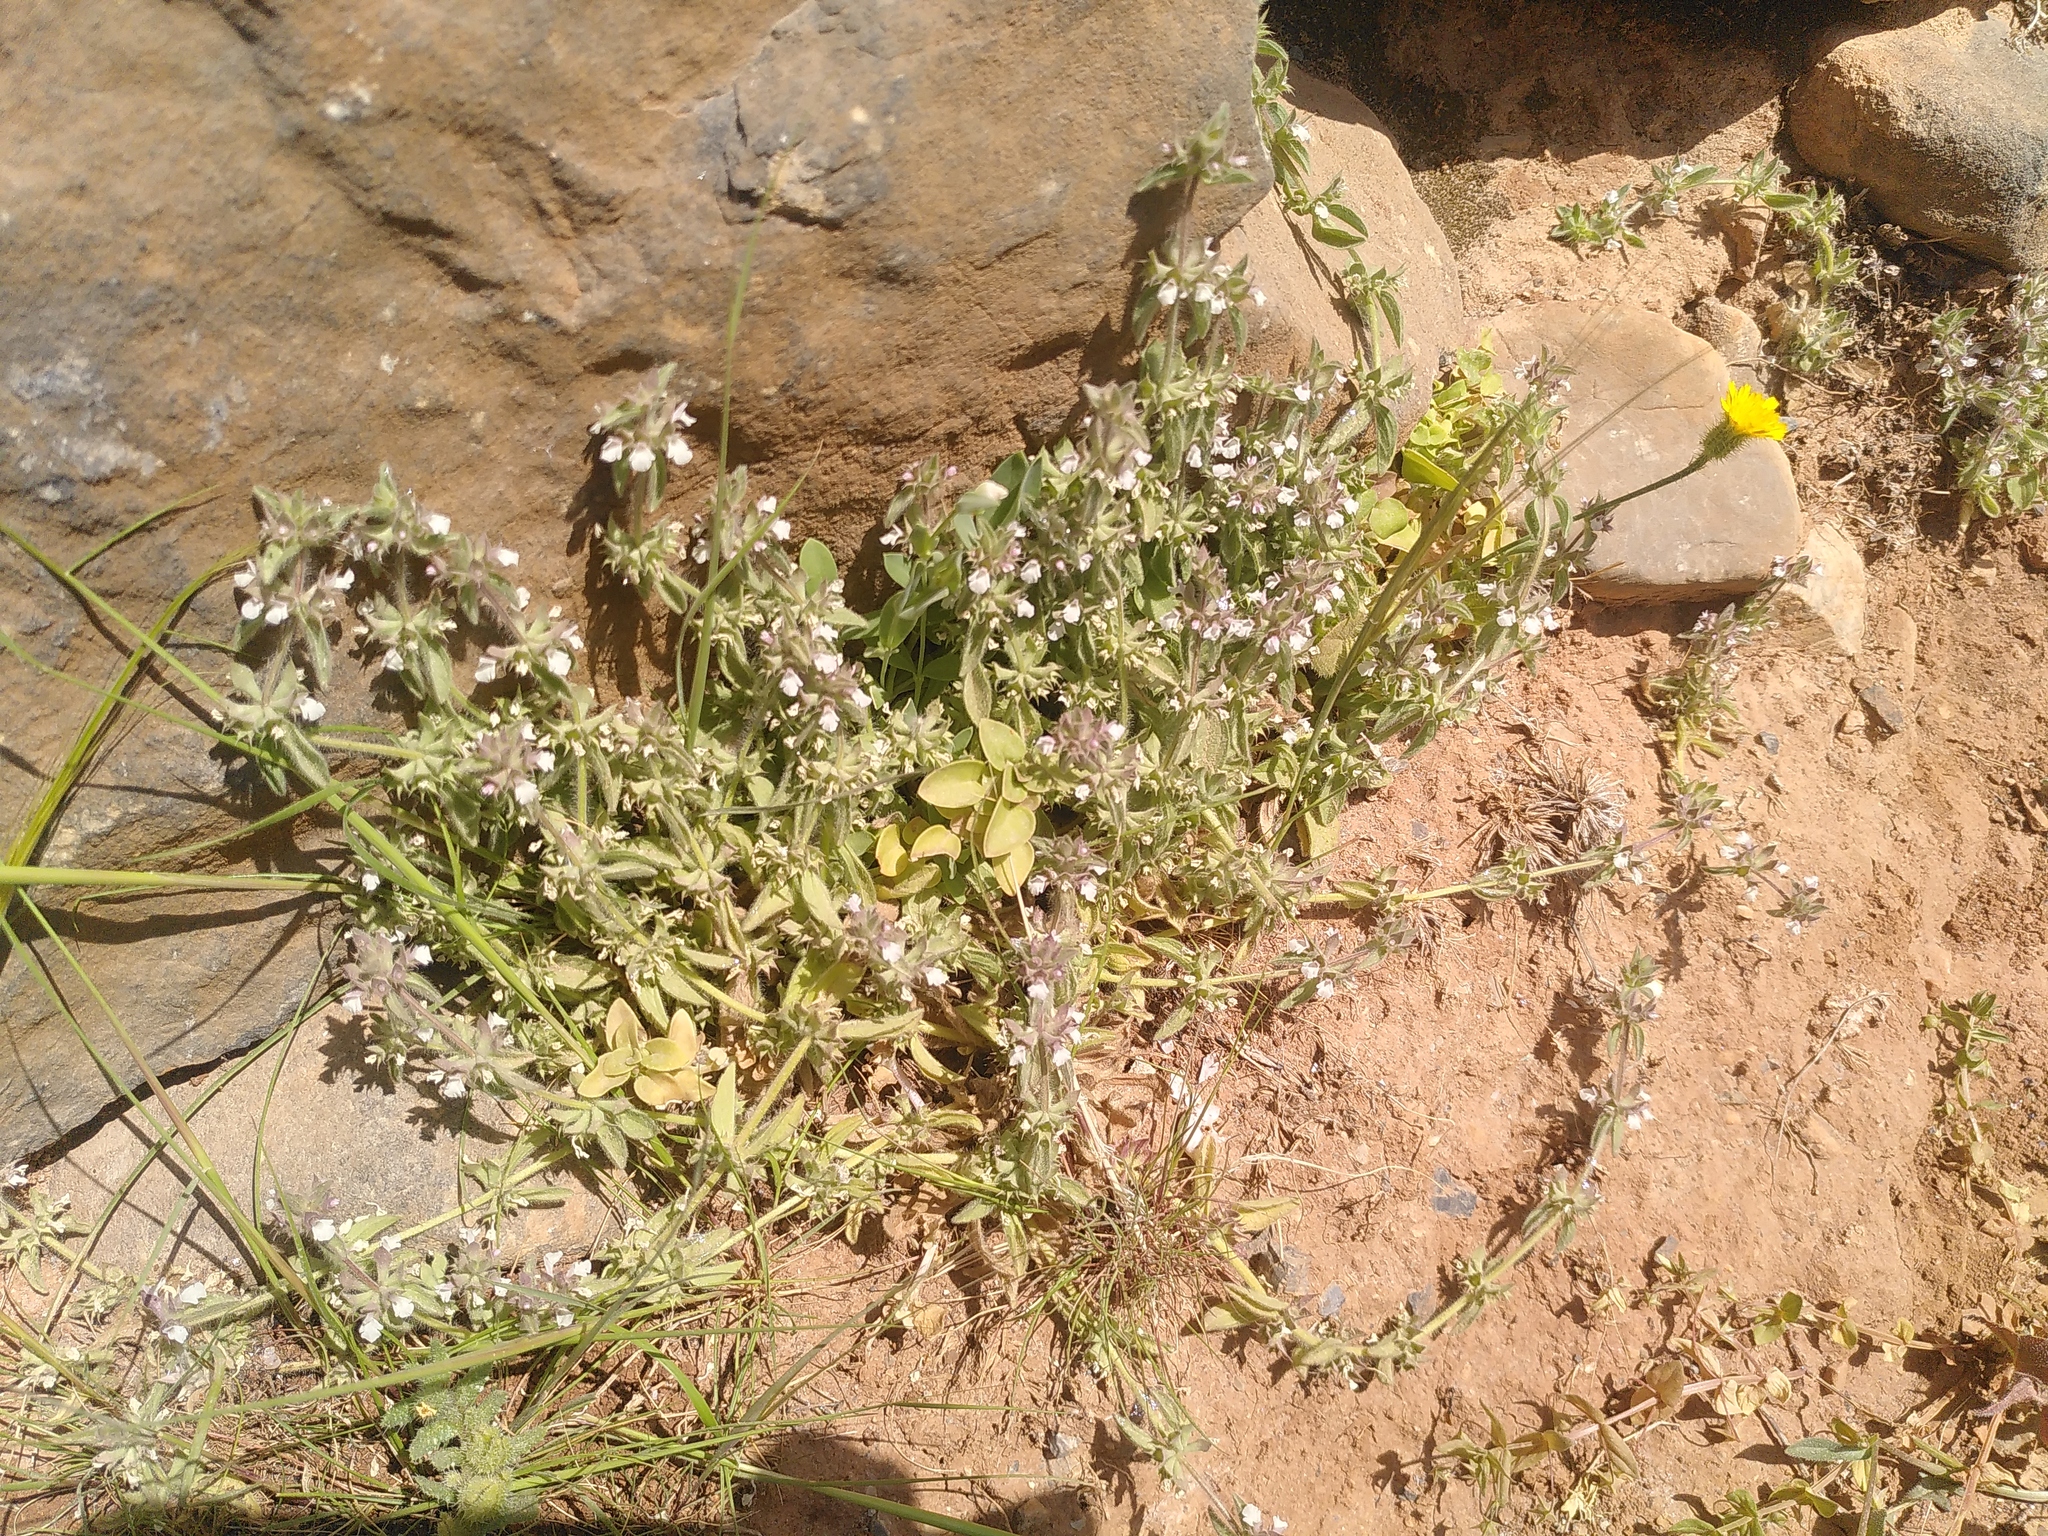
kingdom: Plantae
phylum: Tracheophyta
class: Magnoliopsida
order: Lamiales
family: Lamiaceae
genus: Sideritis
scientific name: Sideritis romana
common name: Simplebeak ironwort
